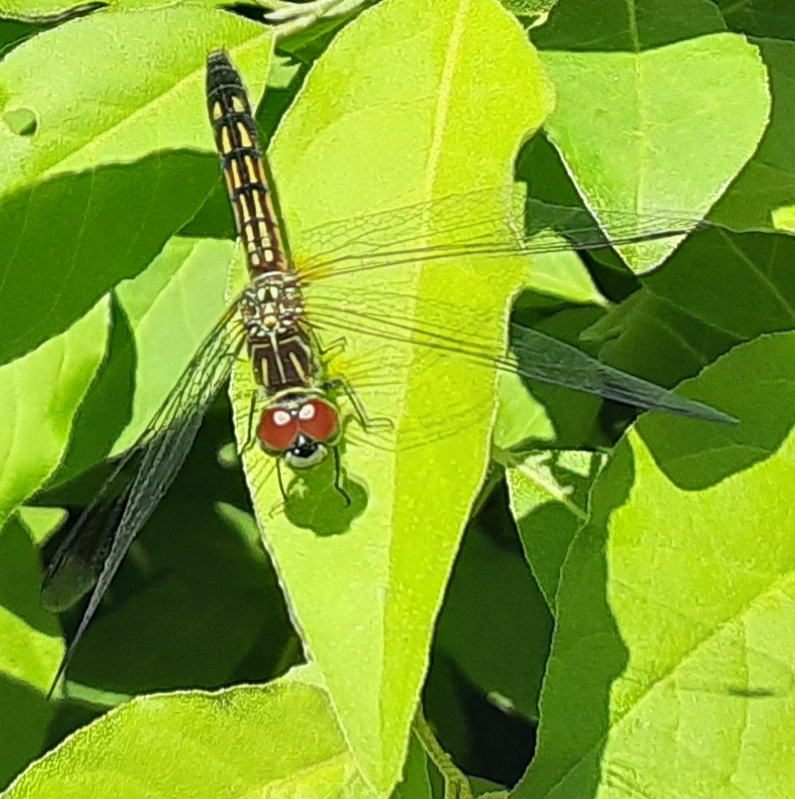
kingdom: Animalia
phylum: Arthropoda
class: Insecta
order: Odonata
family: Libellulidae
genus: Pachydiplax
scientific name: Pachydiplax longipennis
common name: Blue dasher
